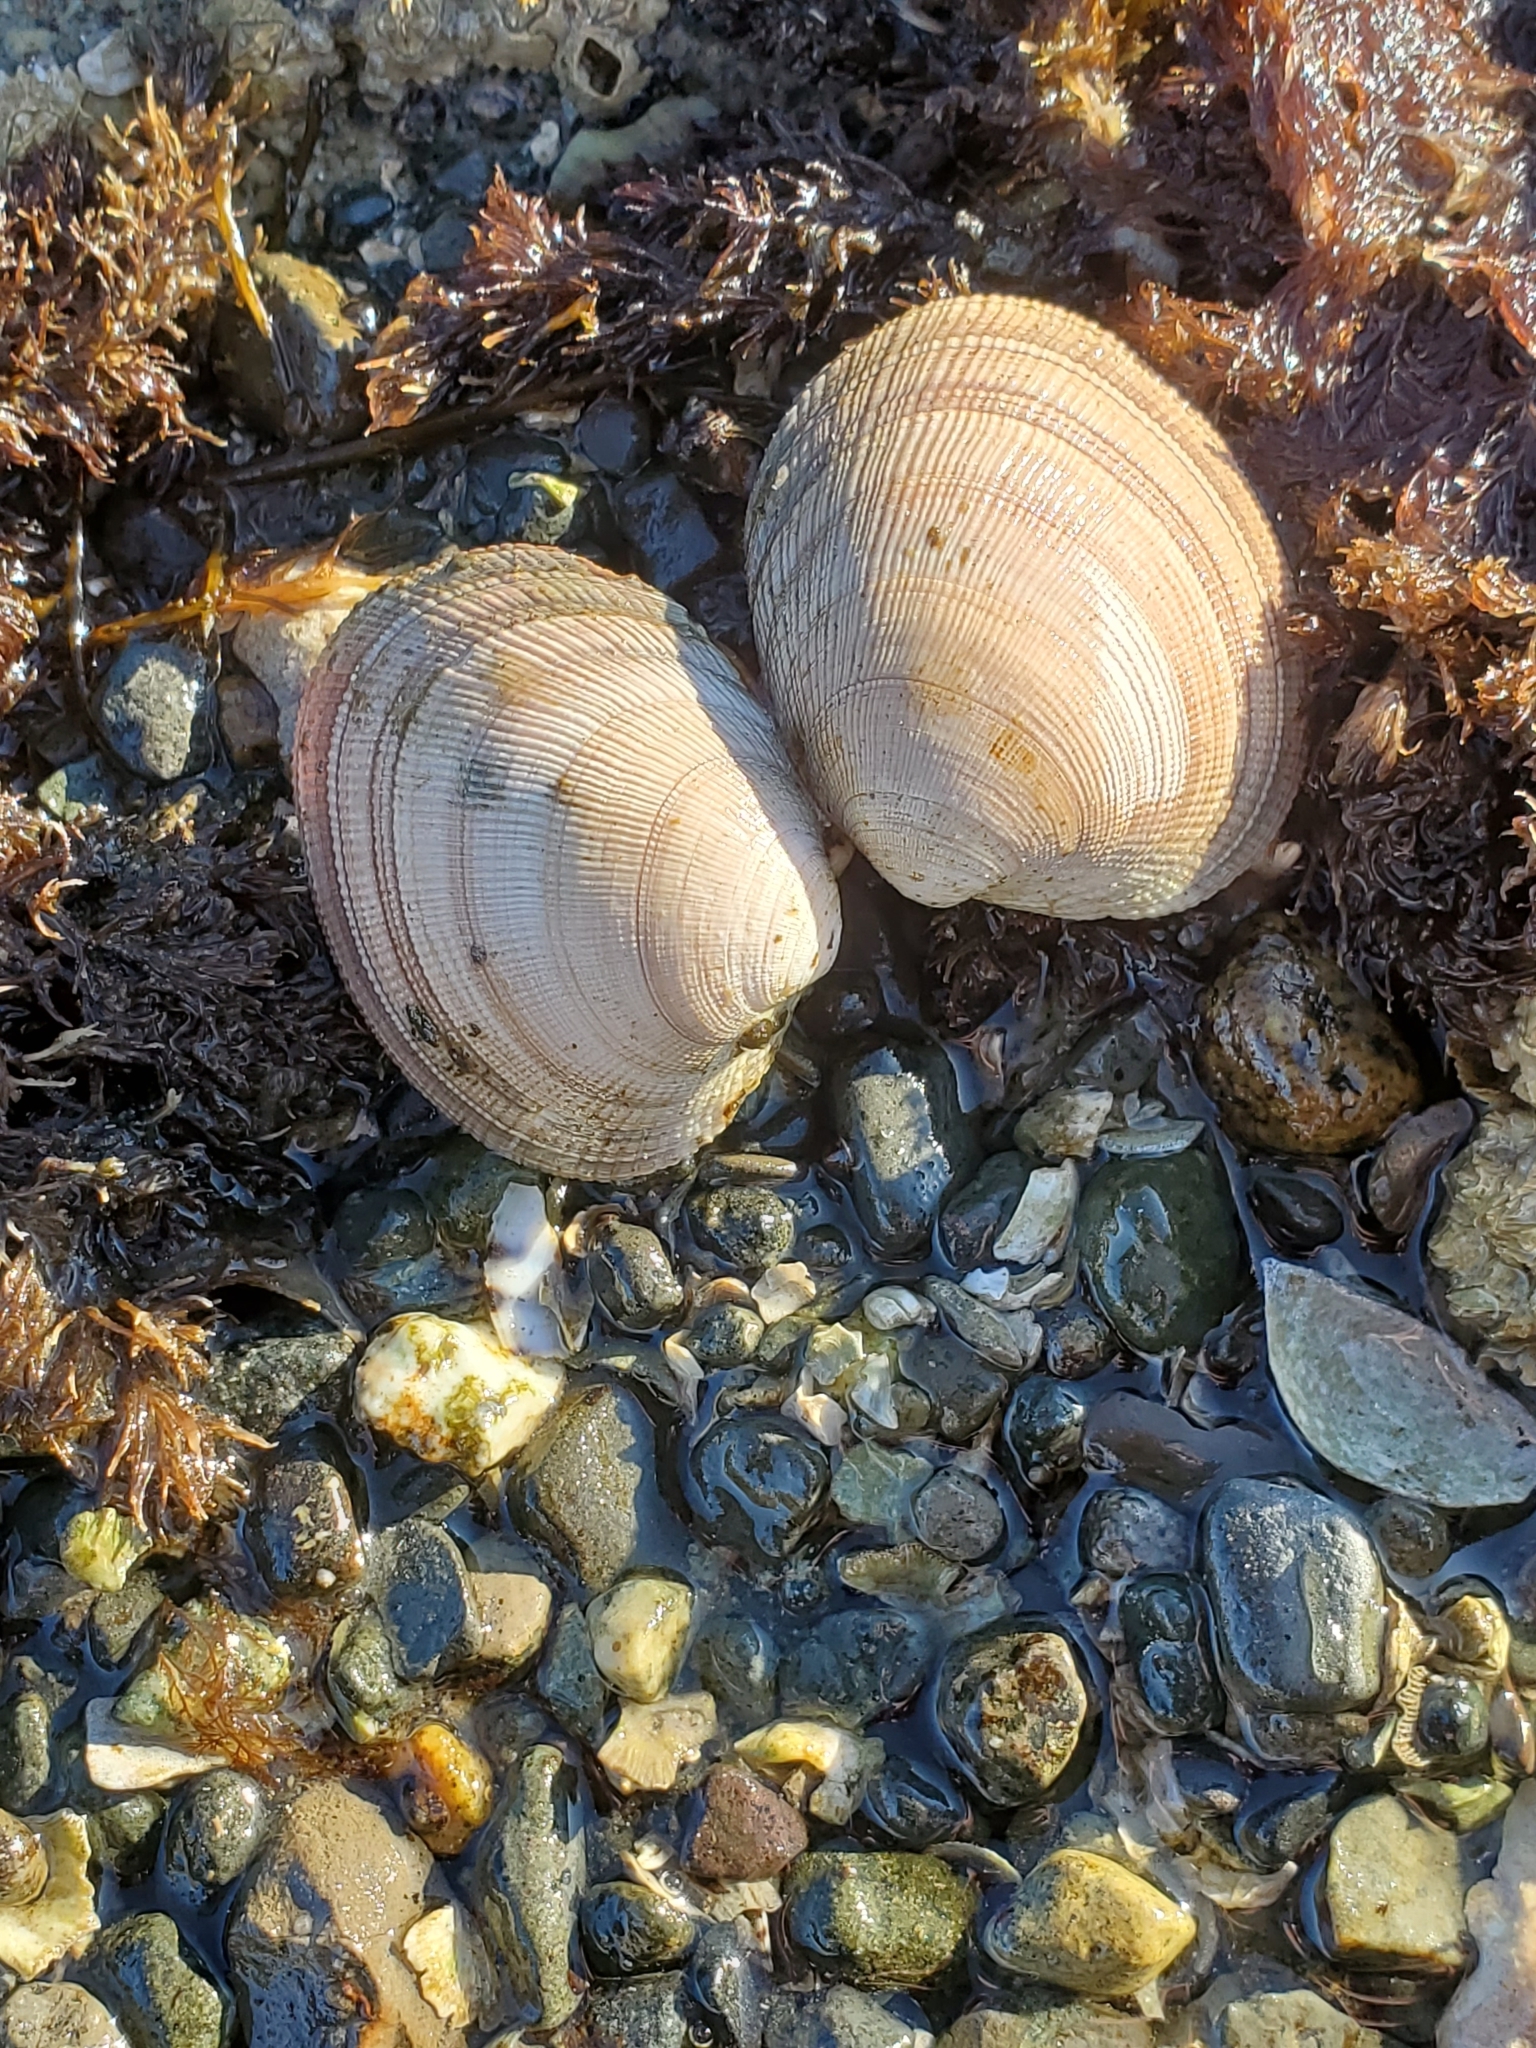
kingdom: Animalia
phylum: Mollusca
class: Bivalvia
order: Venerida
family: Veneridae
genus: Leukoma
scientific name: Leukoma staminea
